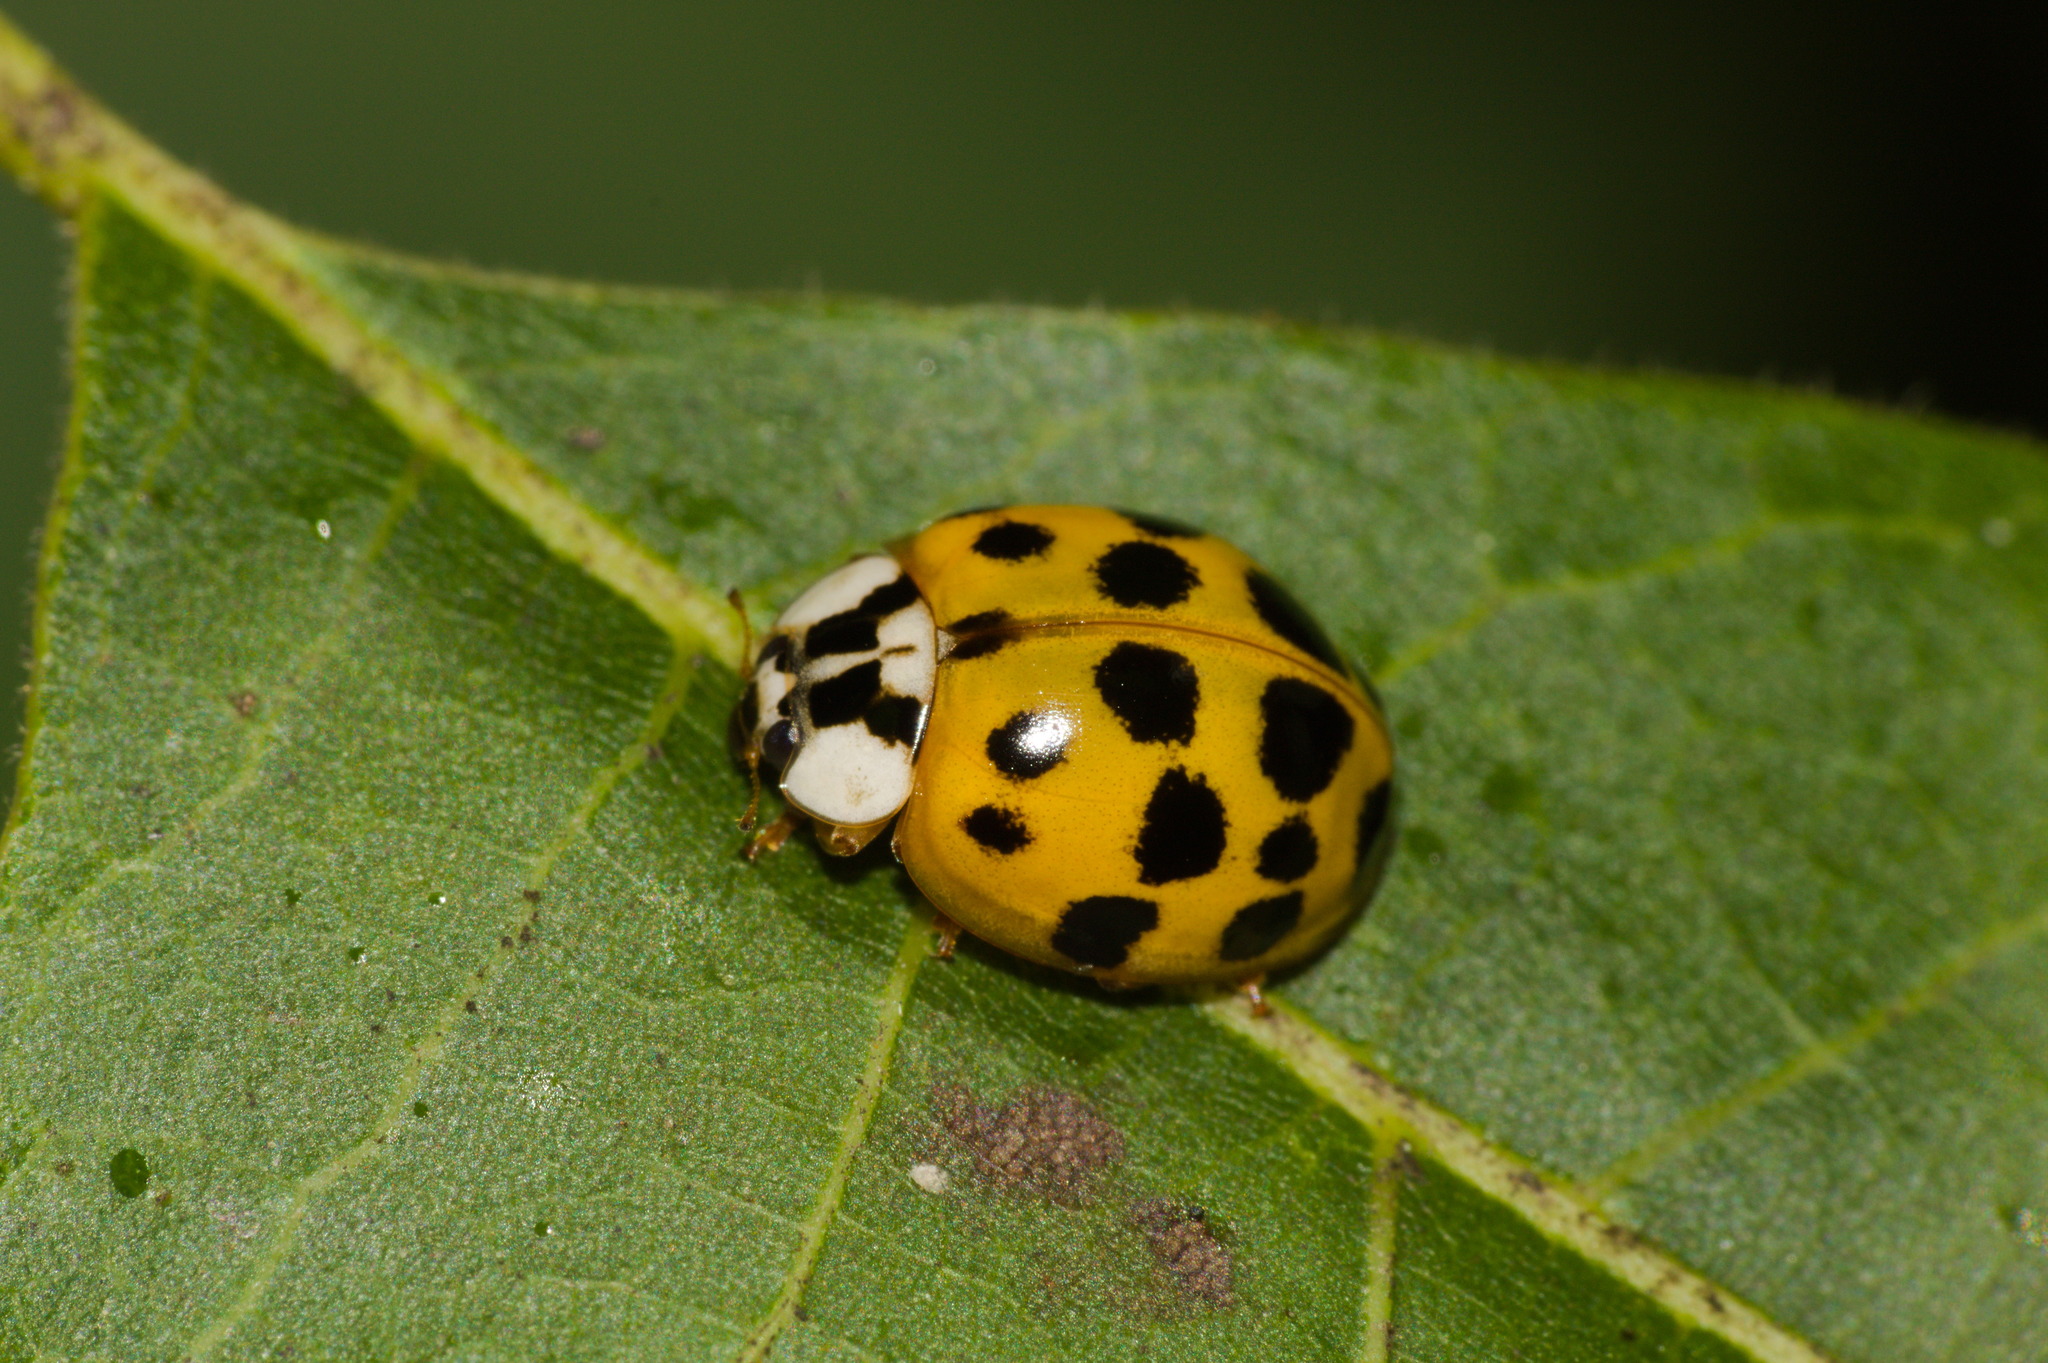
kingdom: Animalia
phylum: Arthropoda
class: Insecta
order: Coleoptera
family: Coccinellidae
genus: Harmonia
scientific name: Harmonia axyridis
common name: Harlequin ladybird
